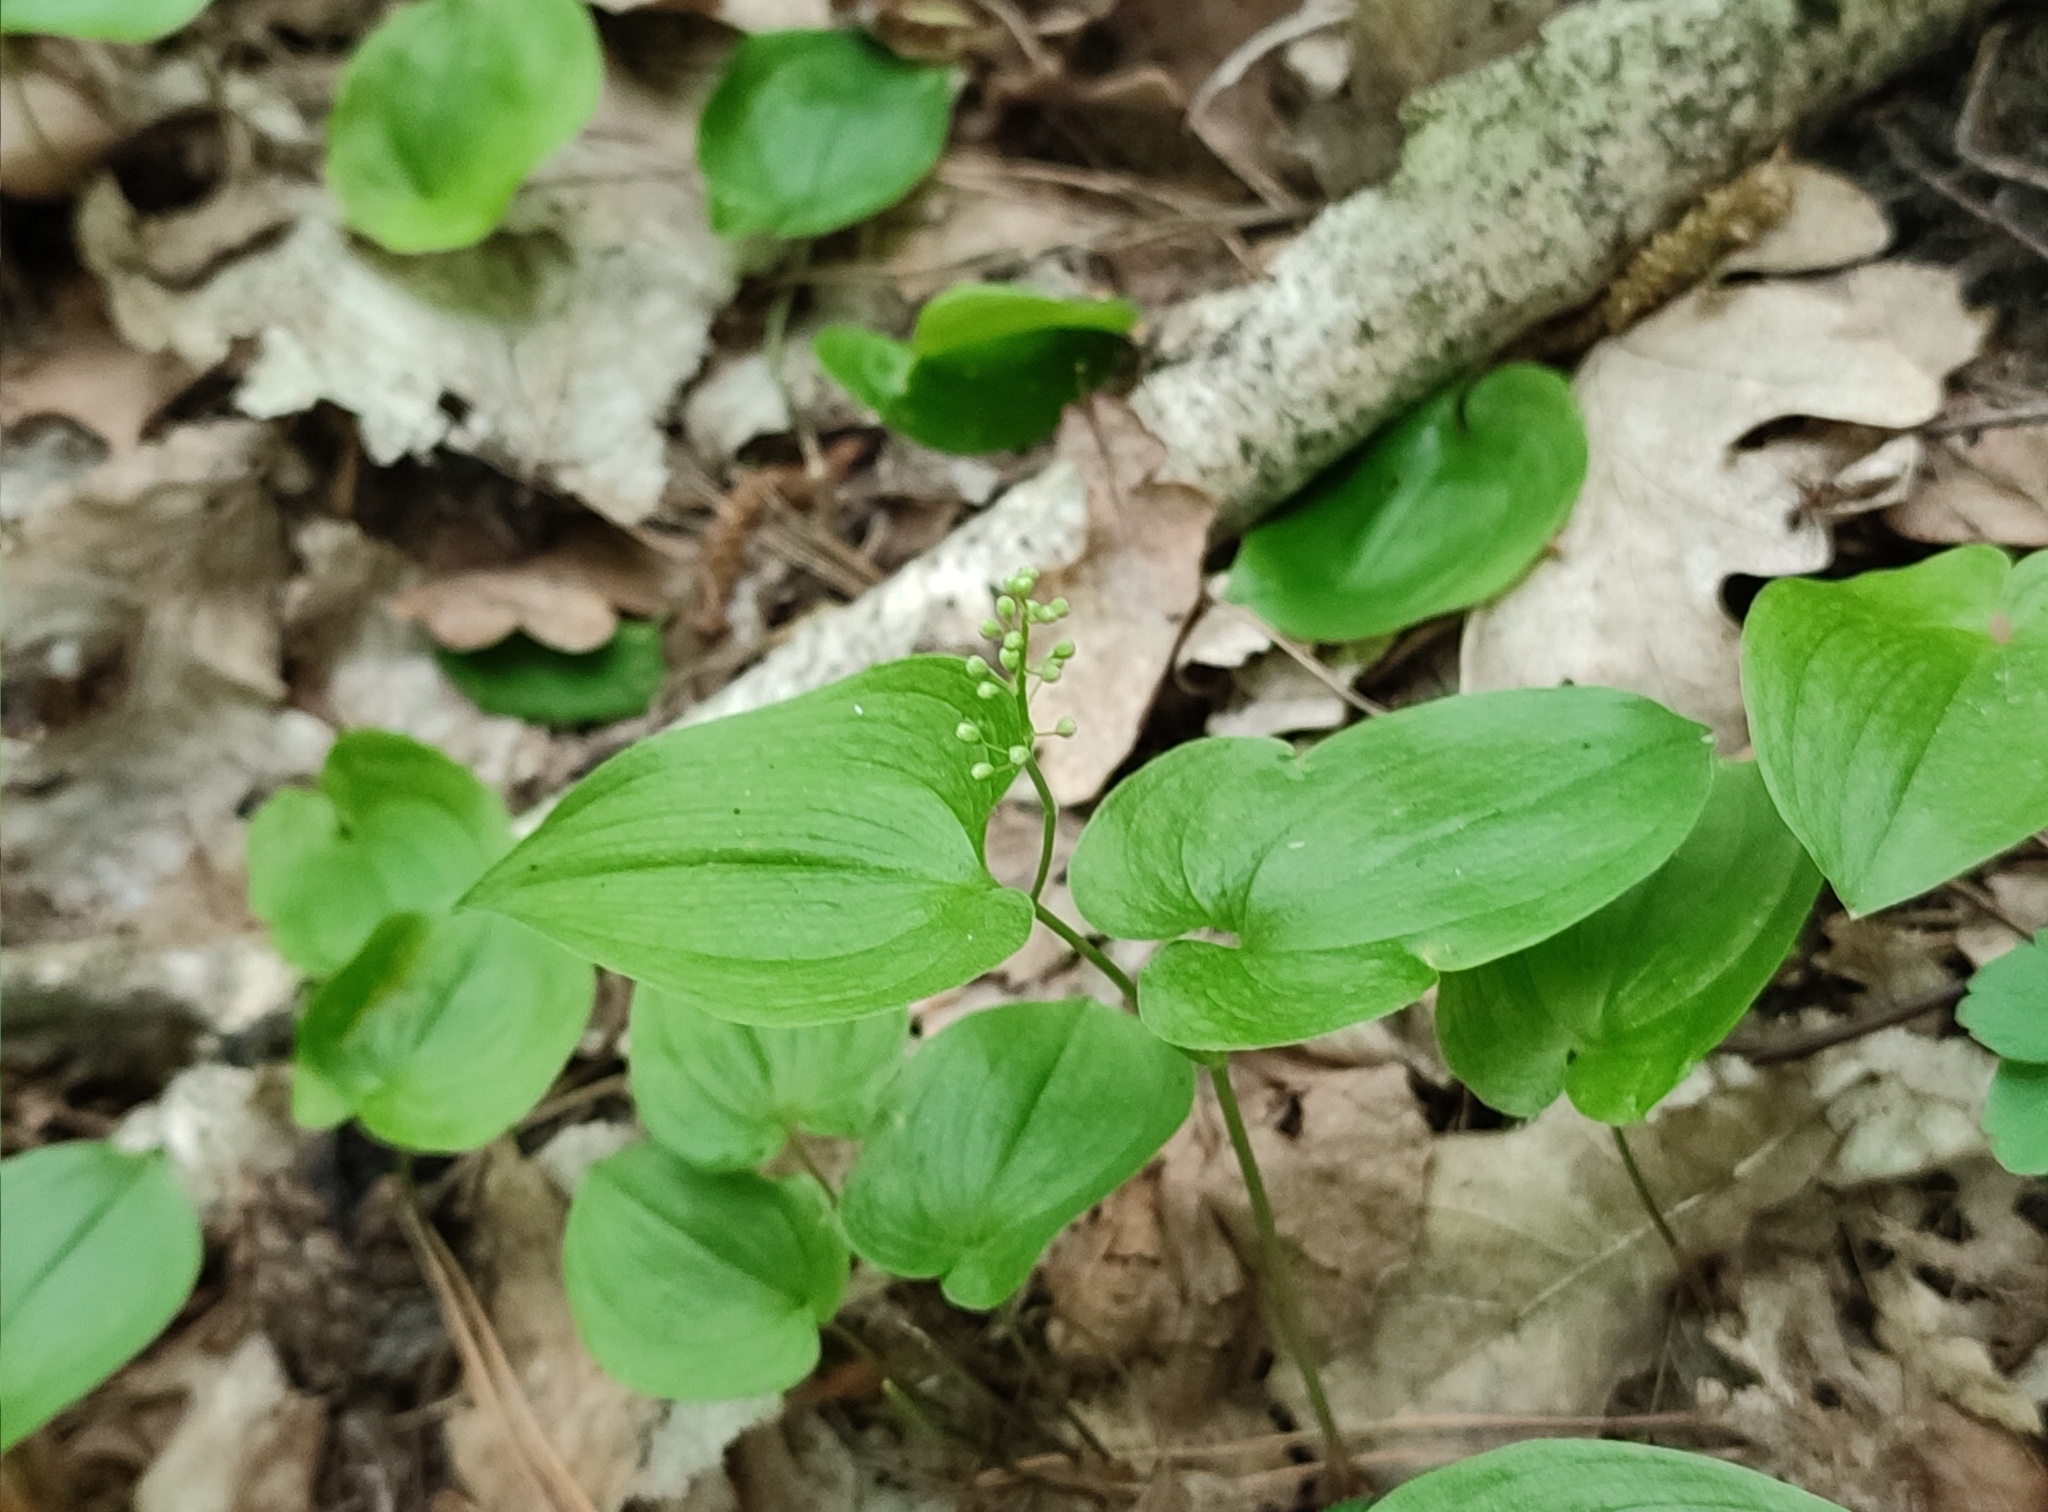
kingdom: Plantae
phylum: Tracheophyta
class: Liliopsida
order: Asparagales
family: Asparagaceae
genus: Maianthemum
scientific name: Maianthemum bifolium
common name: May lily
